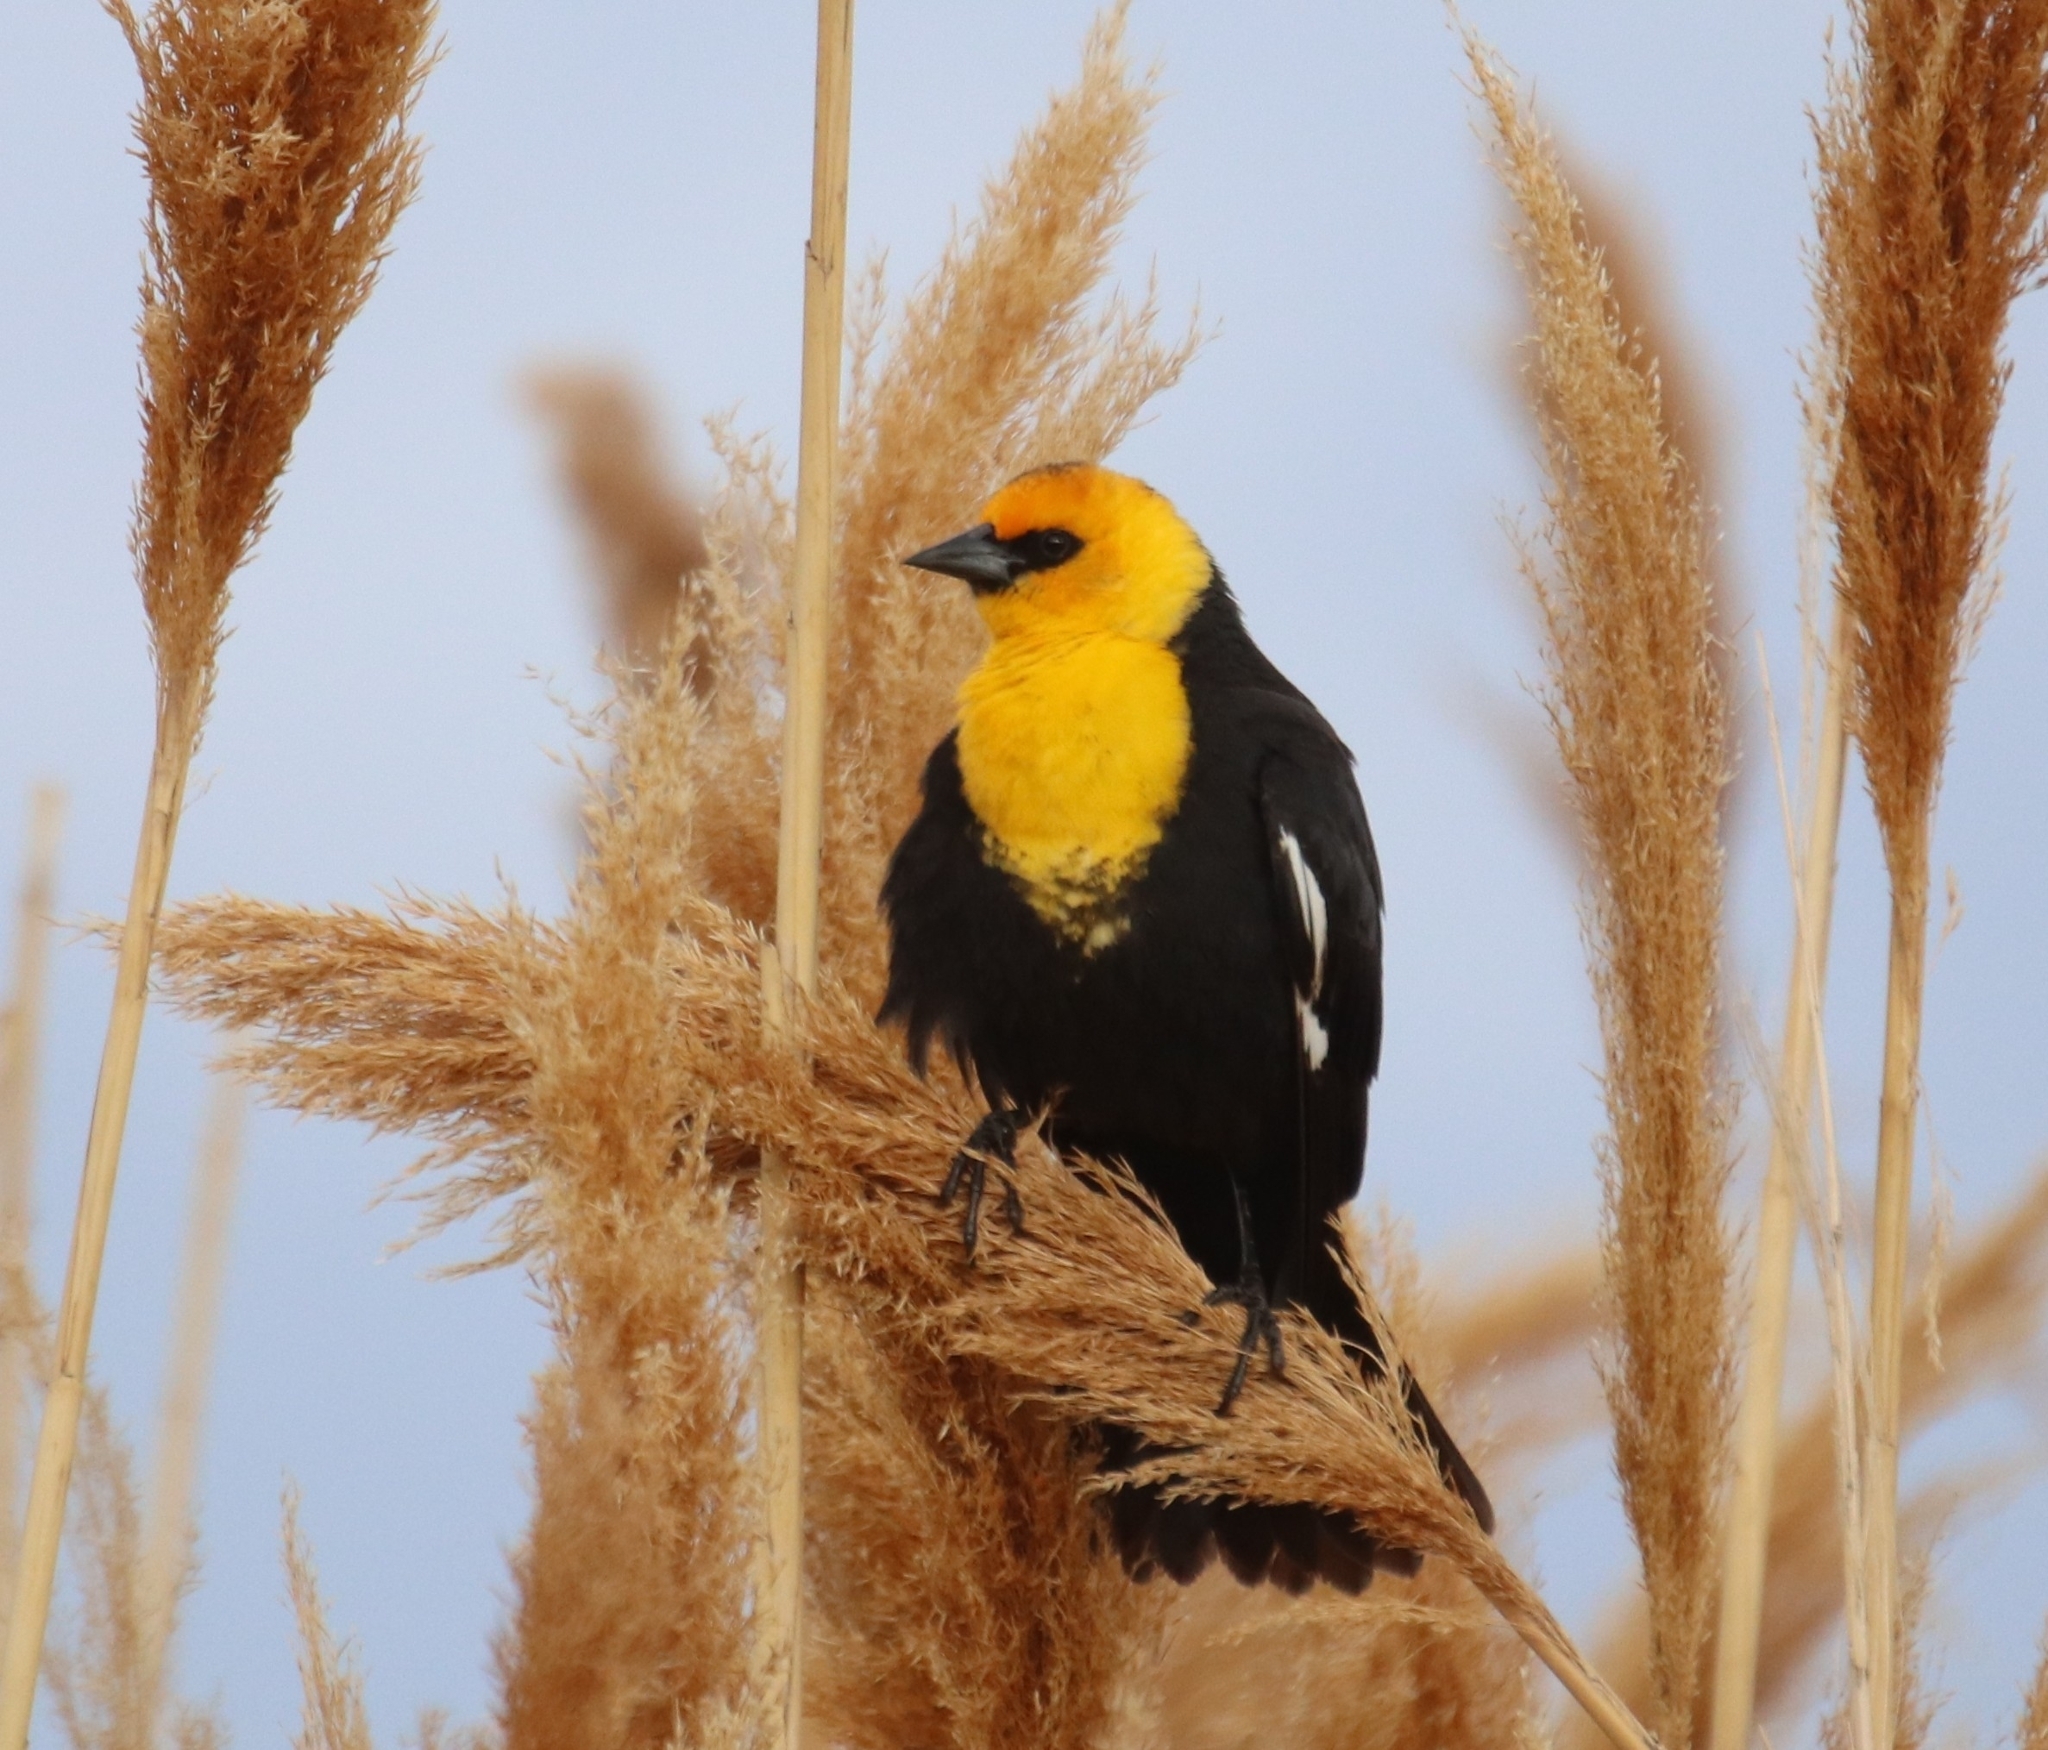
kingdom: Animalia
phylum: Chordata
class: Aves
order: Passeriformes
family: Icteridae
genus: Xanthocephalus
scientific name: Xanthocephalus xanthocephalus
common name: Yellow-headed blackbird
